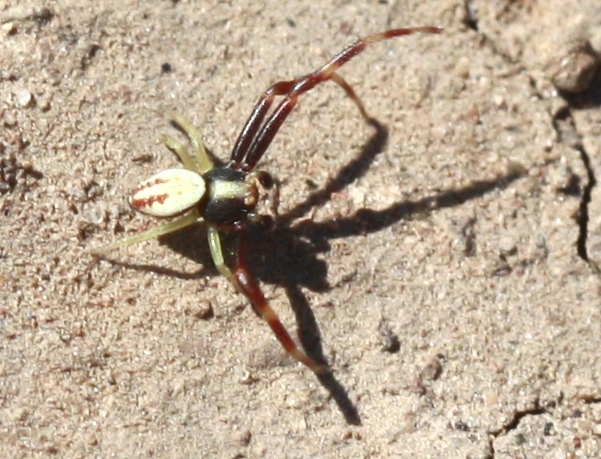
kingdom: Animalia
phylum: Arthropoda
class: Arachnida
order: Araneae
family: Thomisidae
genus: Misumena
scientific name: Misumena vatia
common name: Goldenrod crab spider
